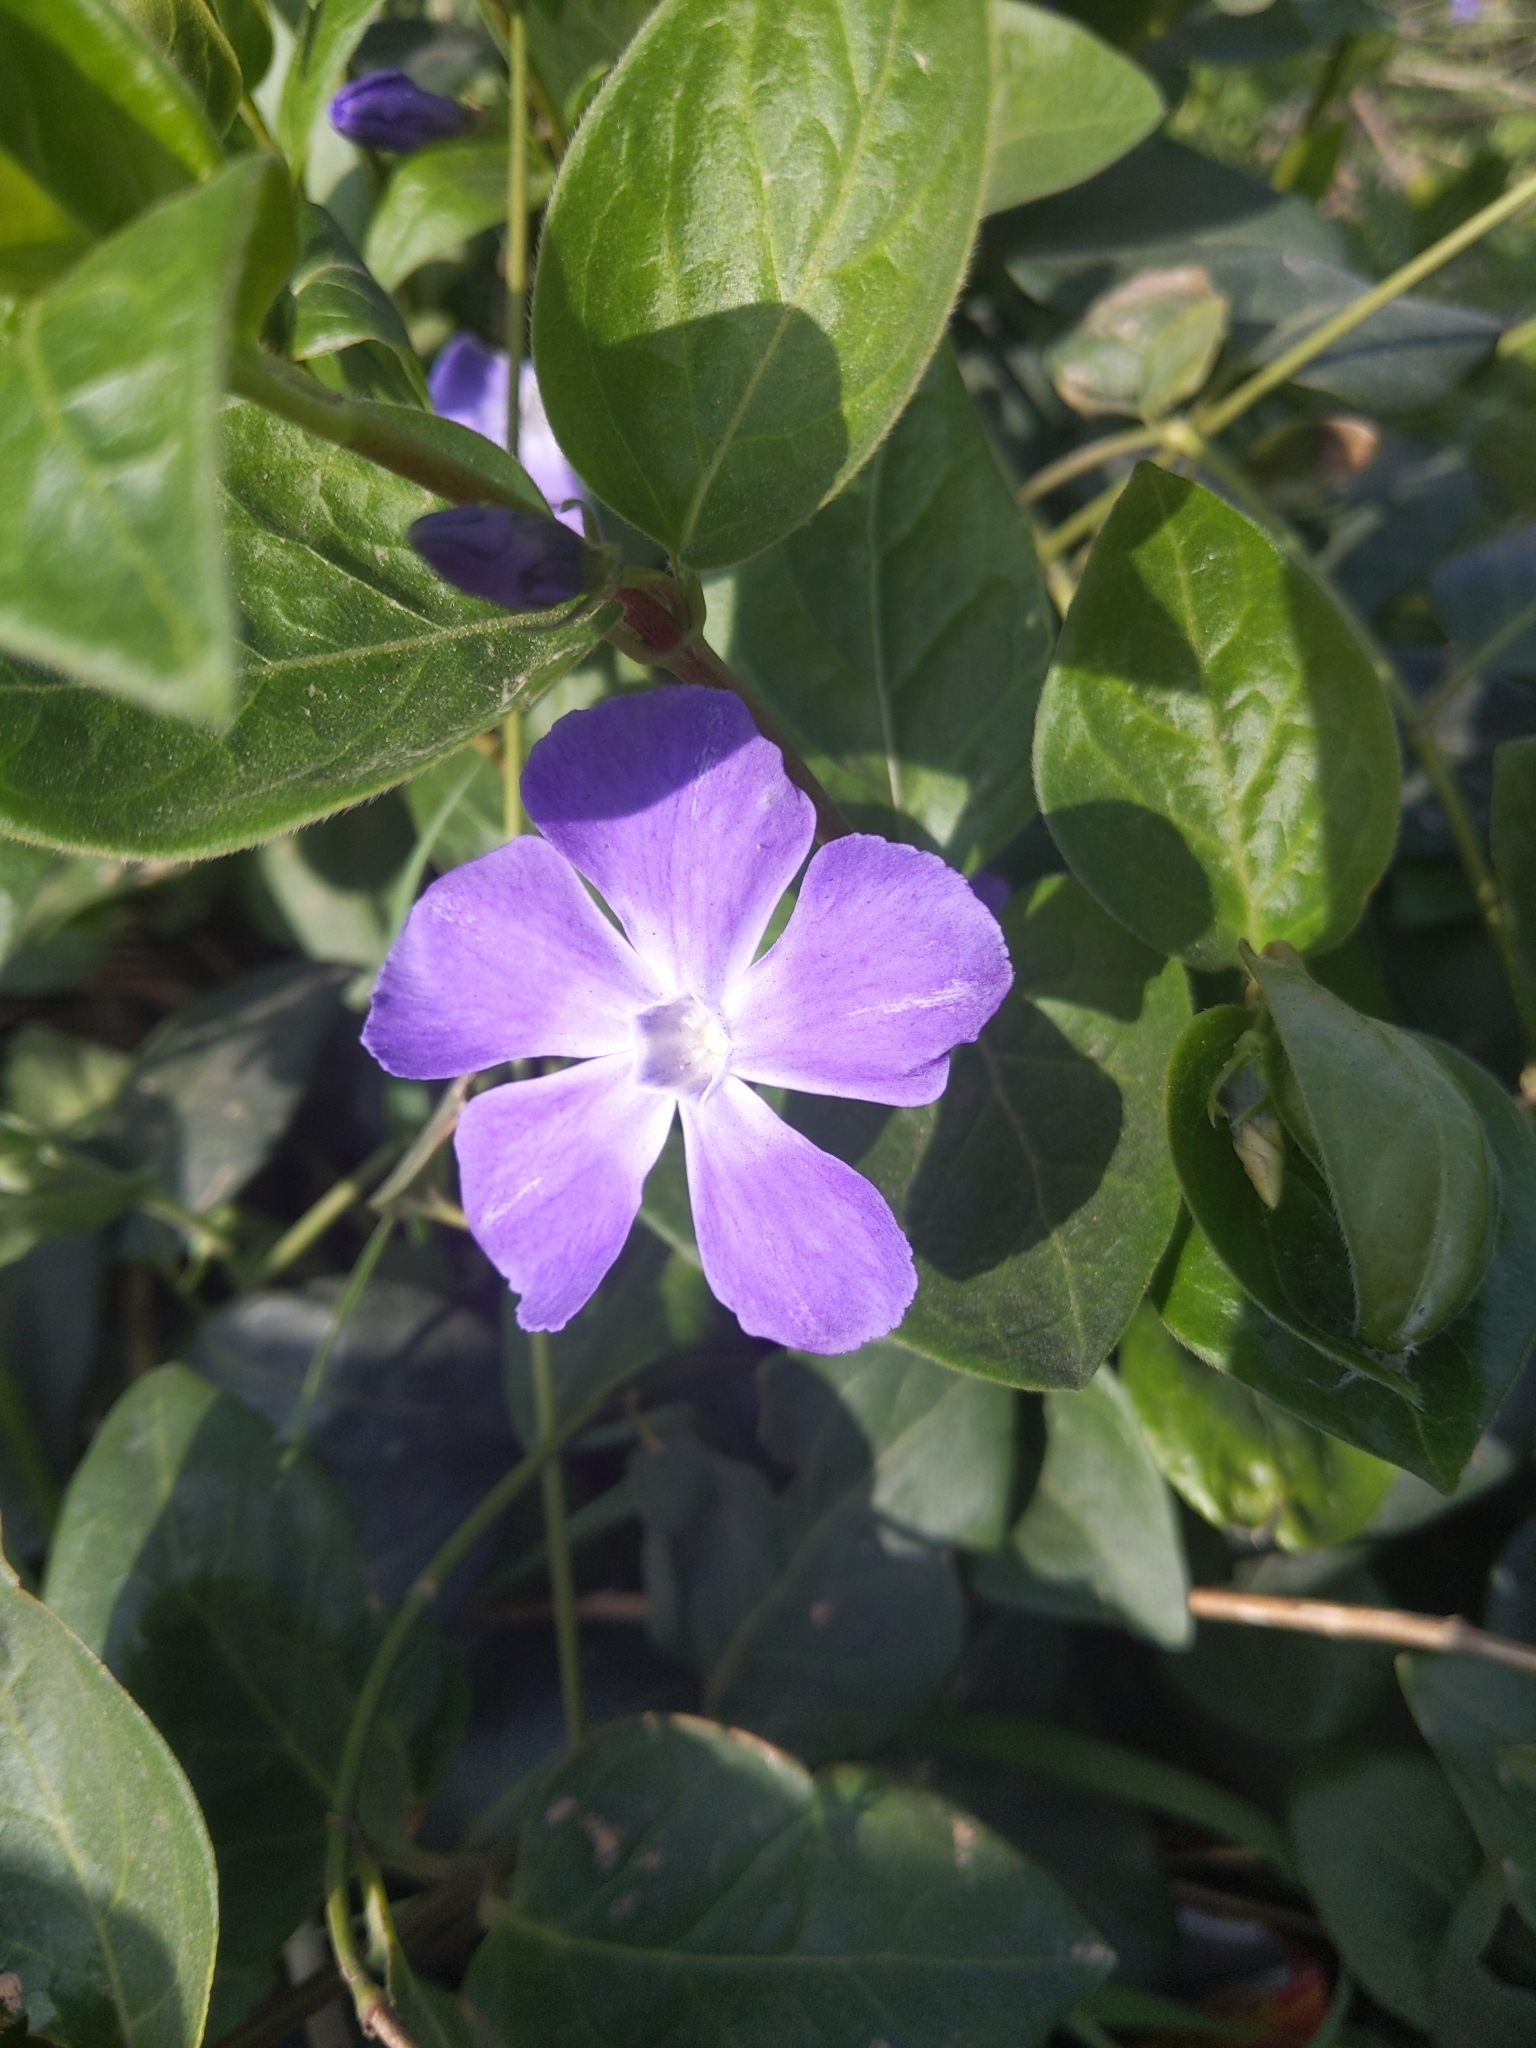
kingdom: Plantae
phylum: Tracheophyta
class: Magnoliopsida
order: Gentianales
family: Apocynaceae
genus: Vinca
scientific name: Vinca major
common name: Greater periwinkle
